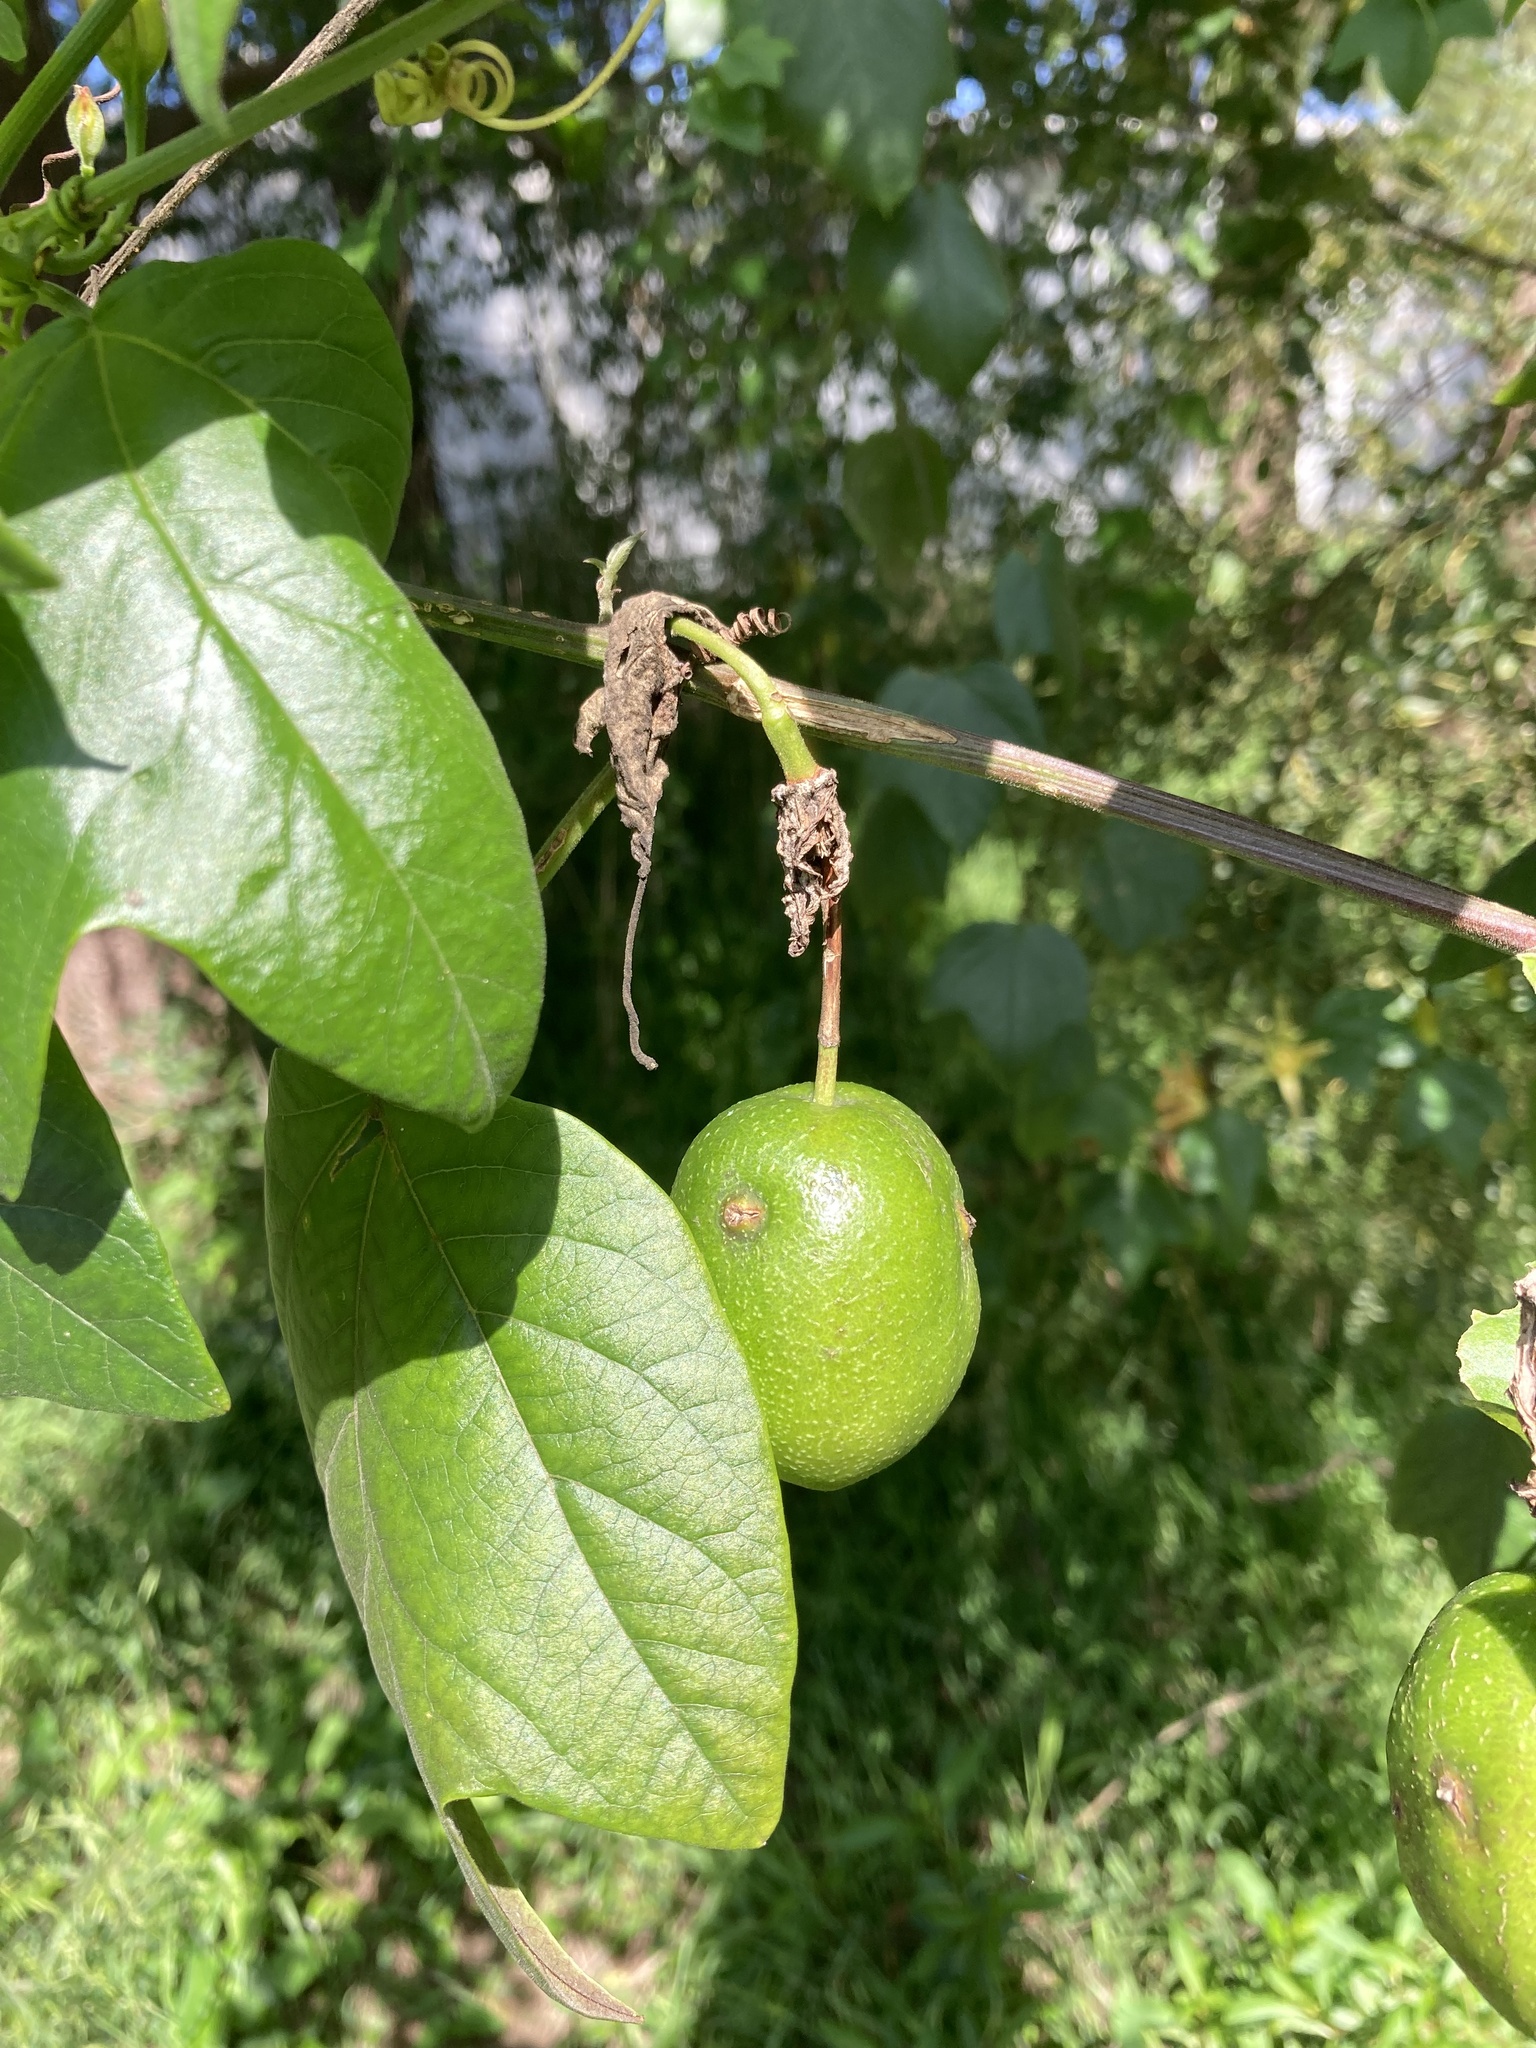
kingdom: Plantae
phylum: Tracheophyta
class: Magnoliopsida
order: Malpighiales
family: Passifloraceae
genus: Passiflora
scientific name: Passiflora herbertiana
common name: Yellow passionflower
